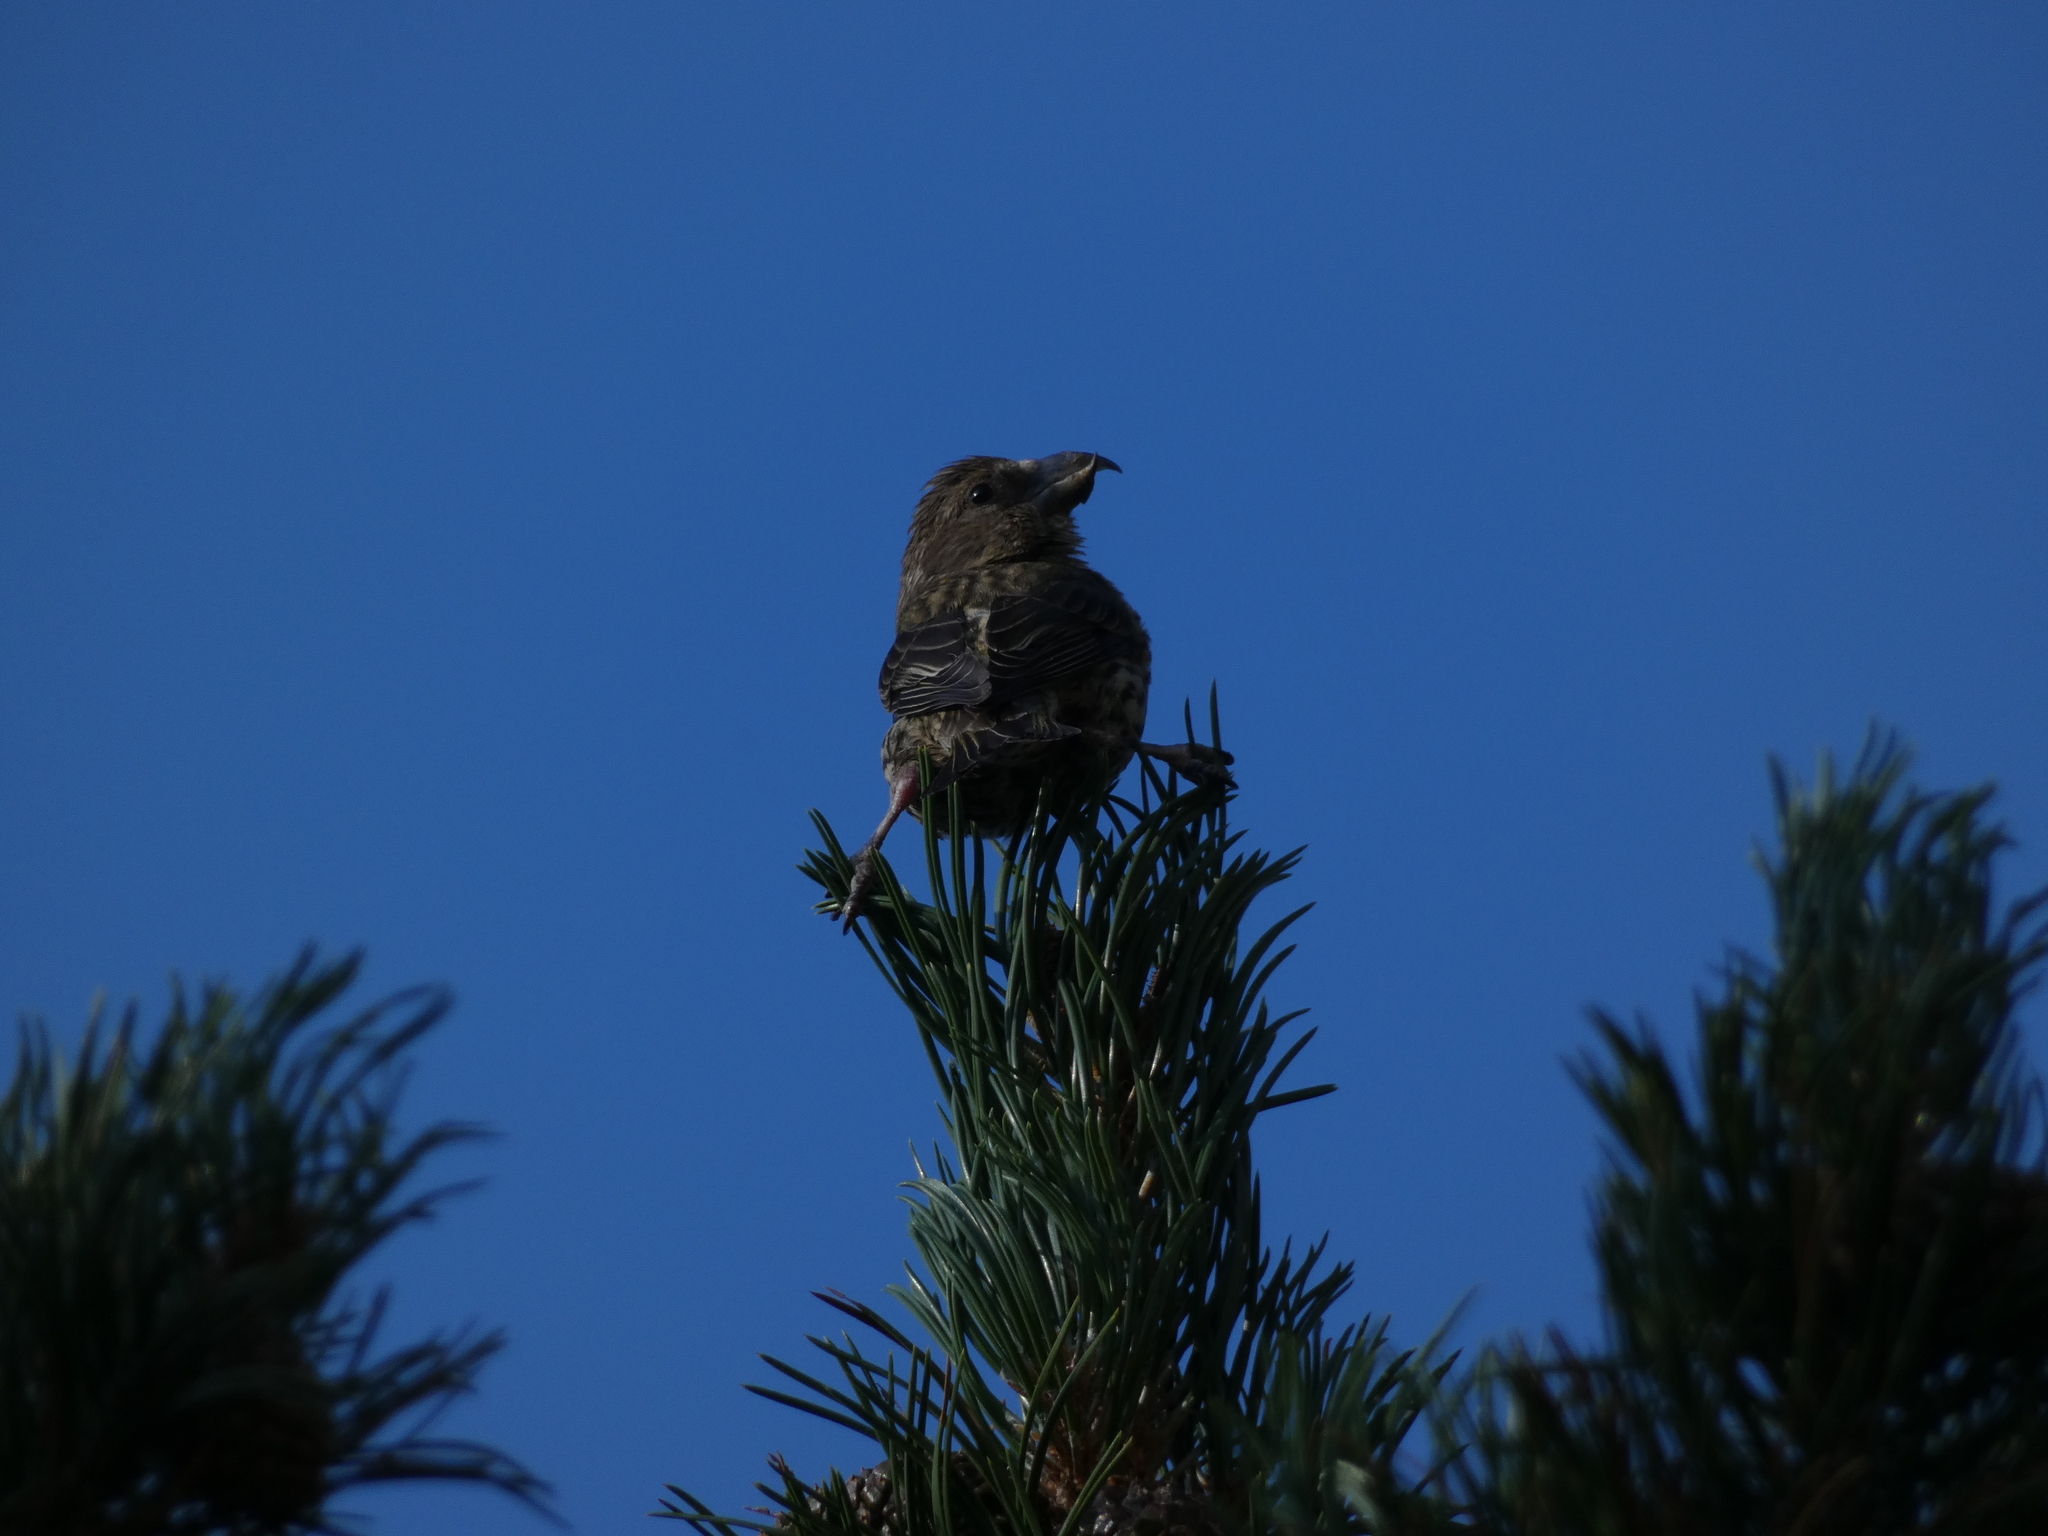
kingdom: Animalia
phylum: Chordata
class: Aves
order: Passeriformes
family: Fringillidae
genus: Loxia
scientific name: Loxia curvirostra
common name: Red crossbill
